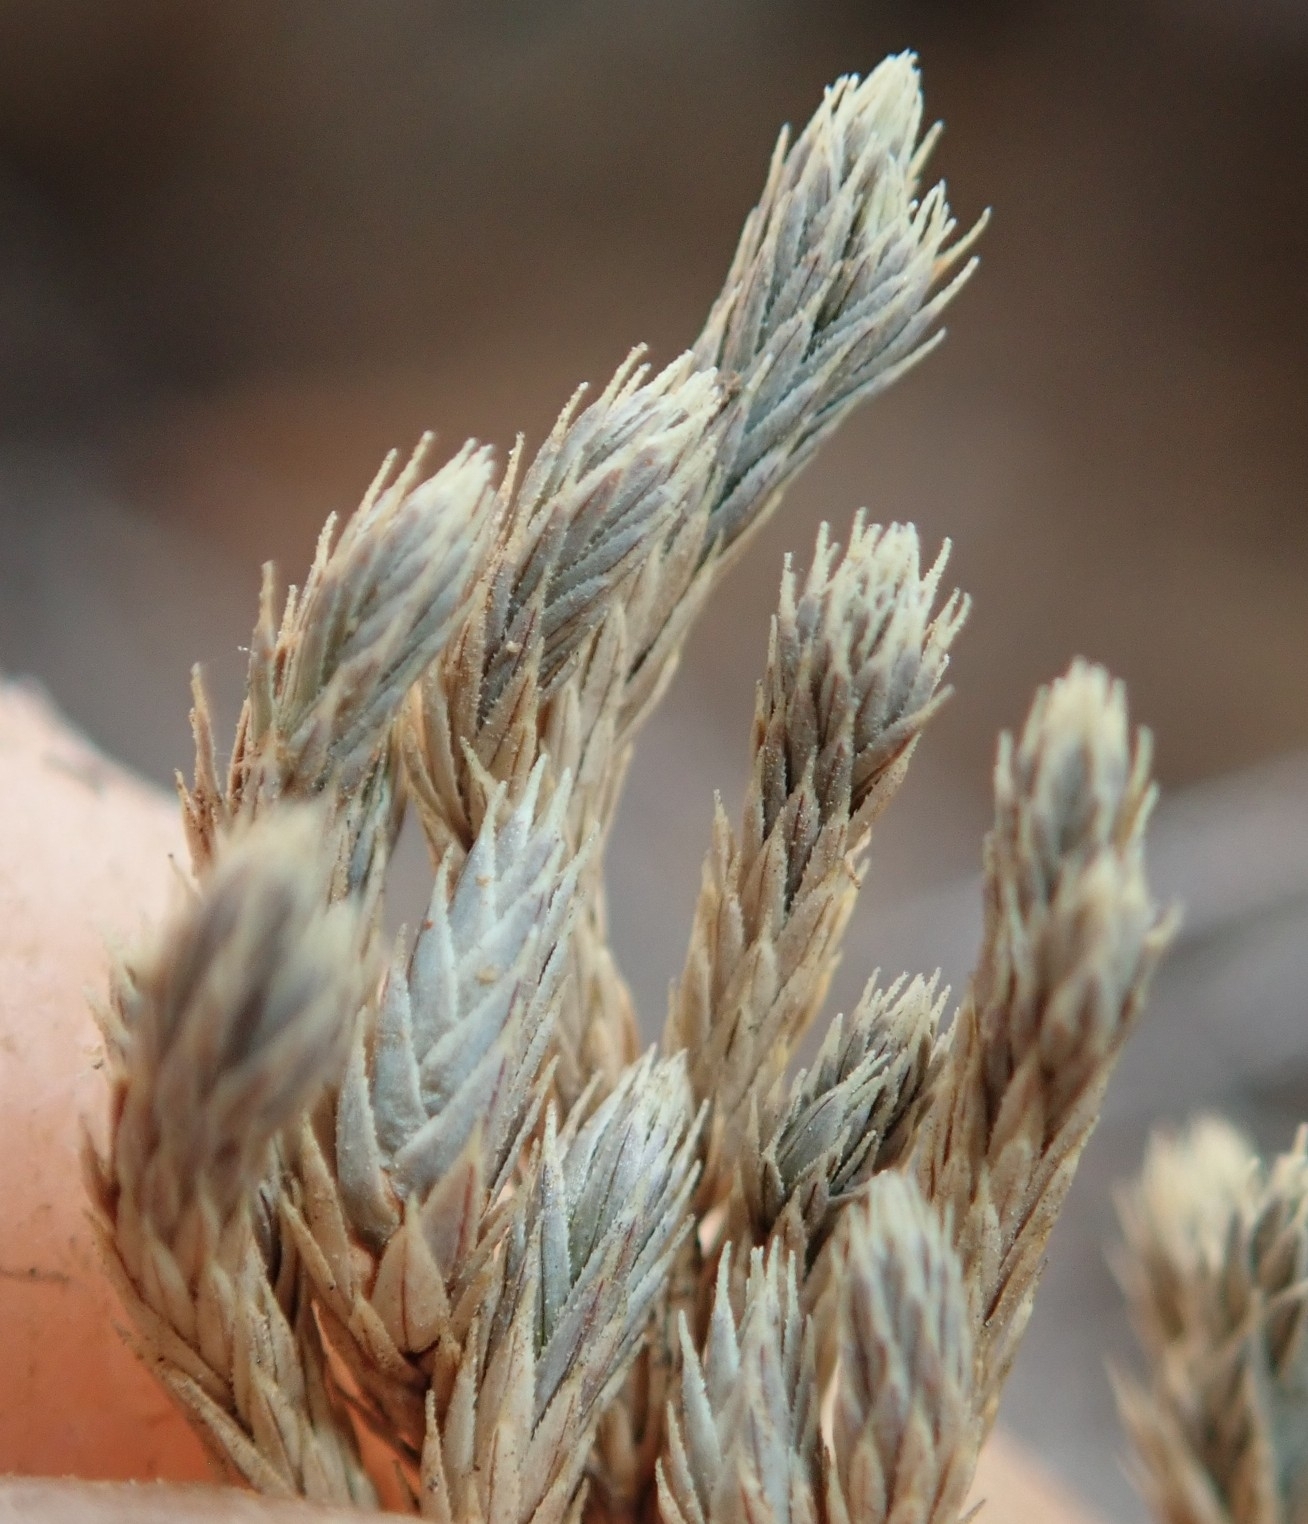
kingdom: Plantae
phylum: Tracheophyta
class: Lycopodiopsida
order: Selaginellales
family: Selaginellaceae
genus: Selaginella
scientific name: Selaginella bigelovii
